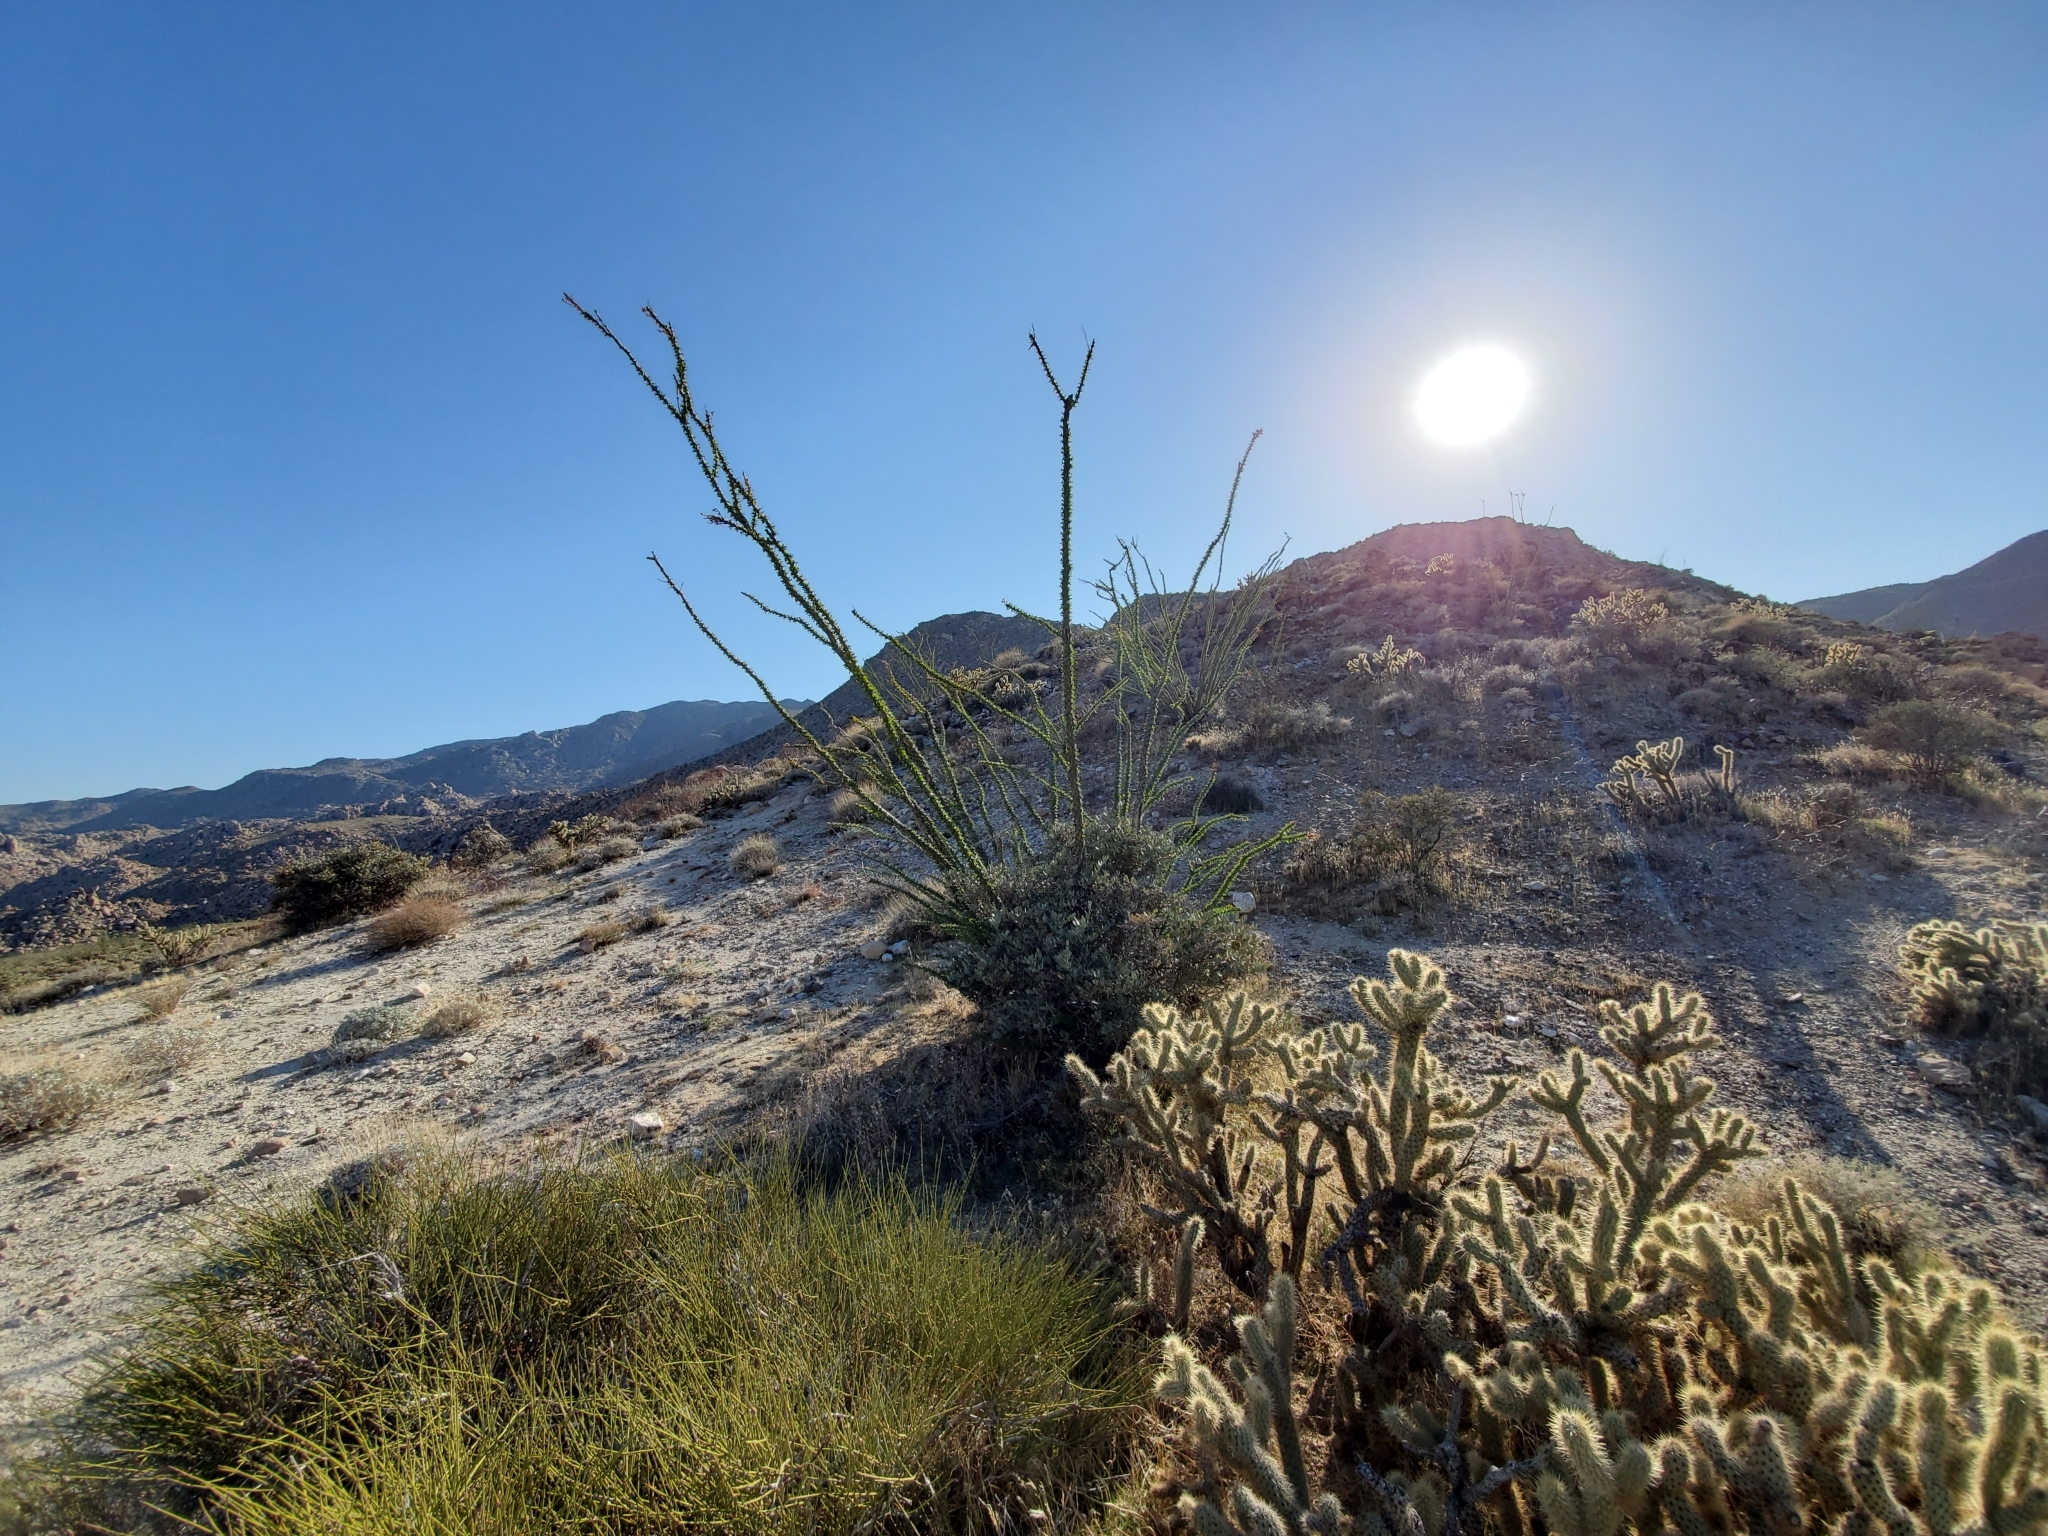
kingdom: Plantae
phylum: Tracheophyta
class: Magnoliopsida
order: Ericales
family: Fouquieriaceae
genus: Fouquieria
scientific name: Fouquieria splendens
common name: Vine-cactus
